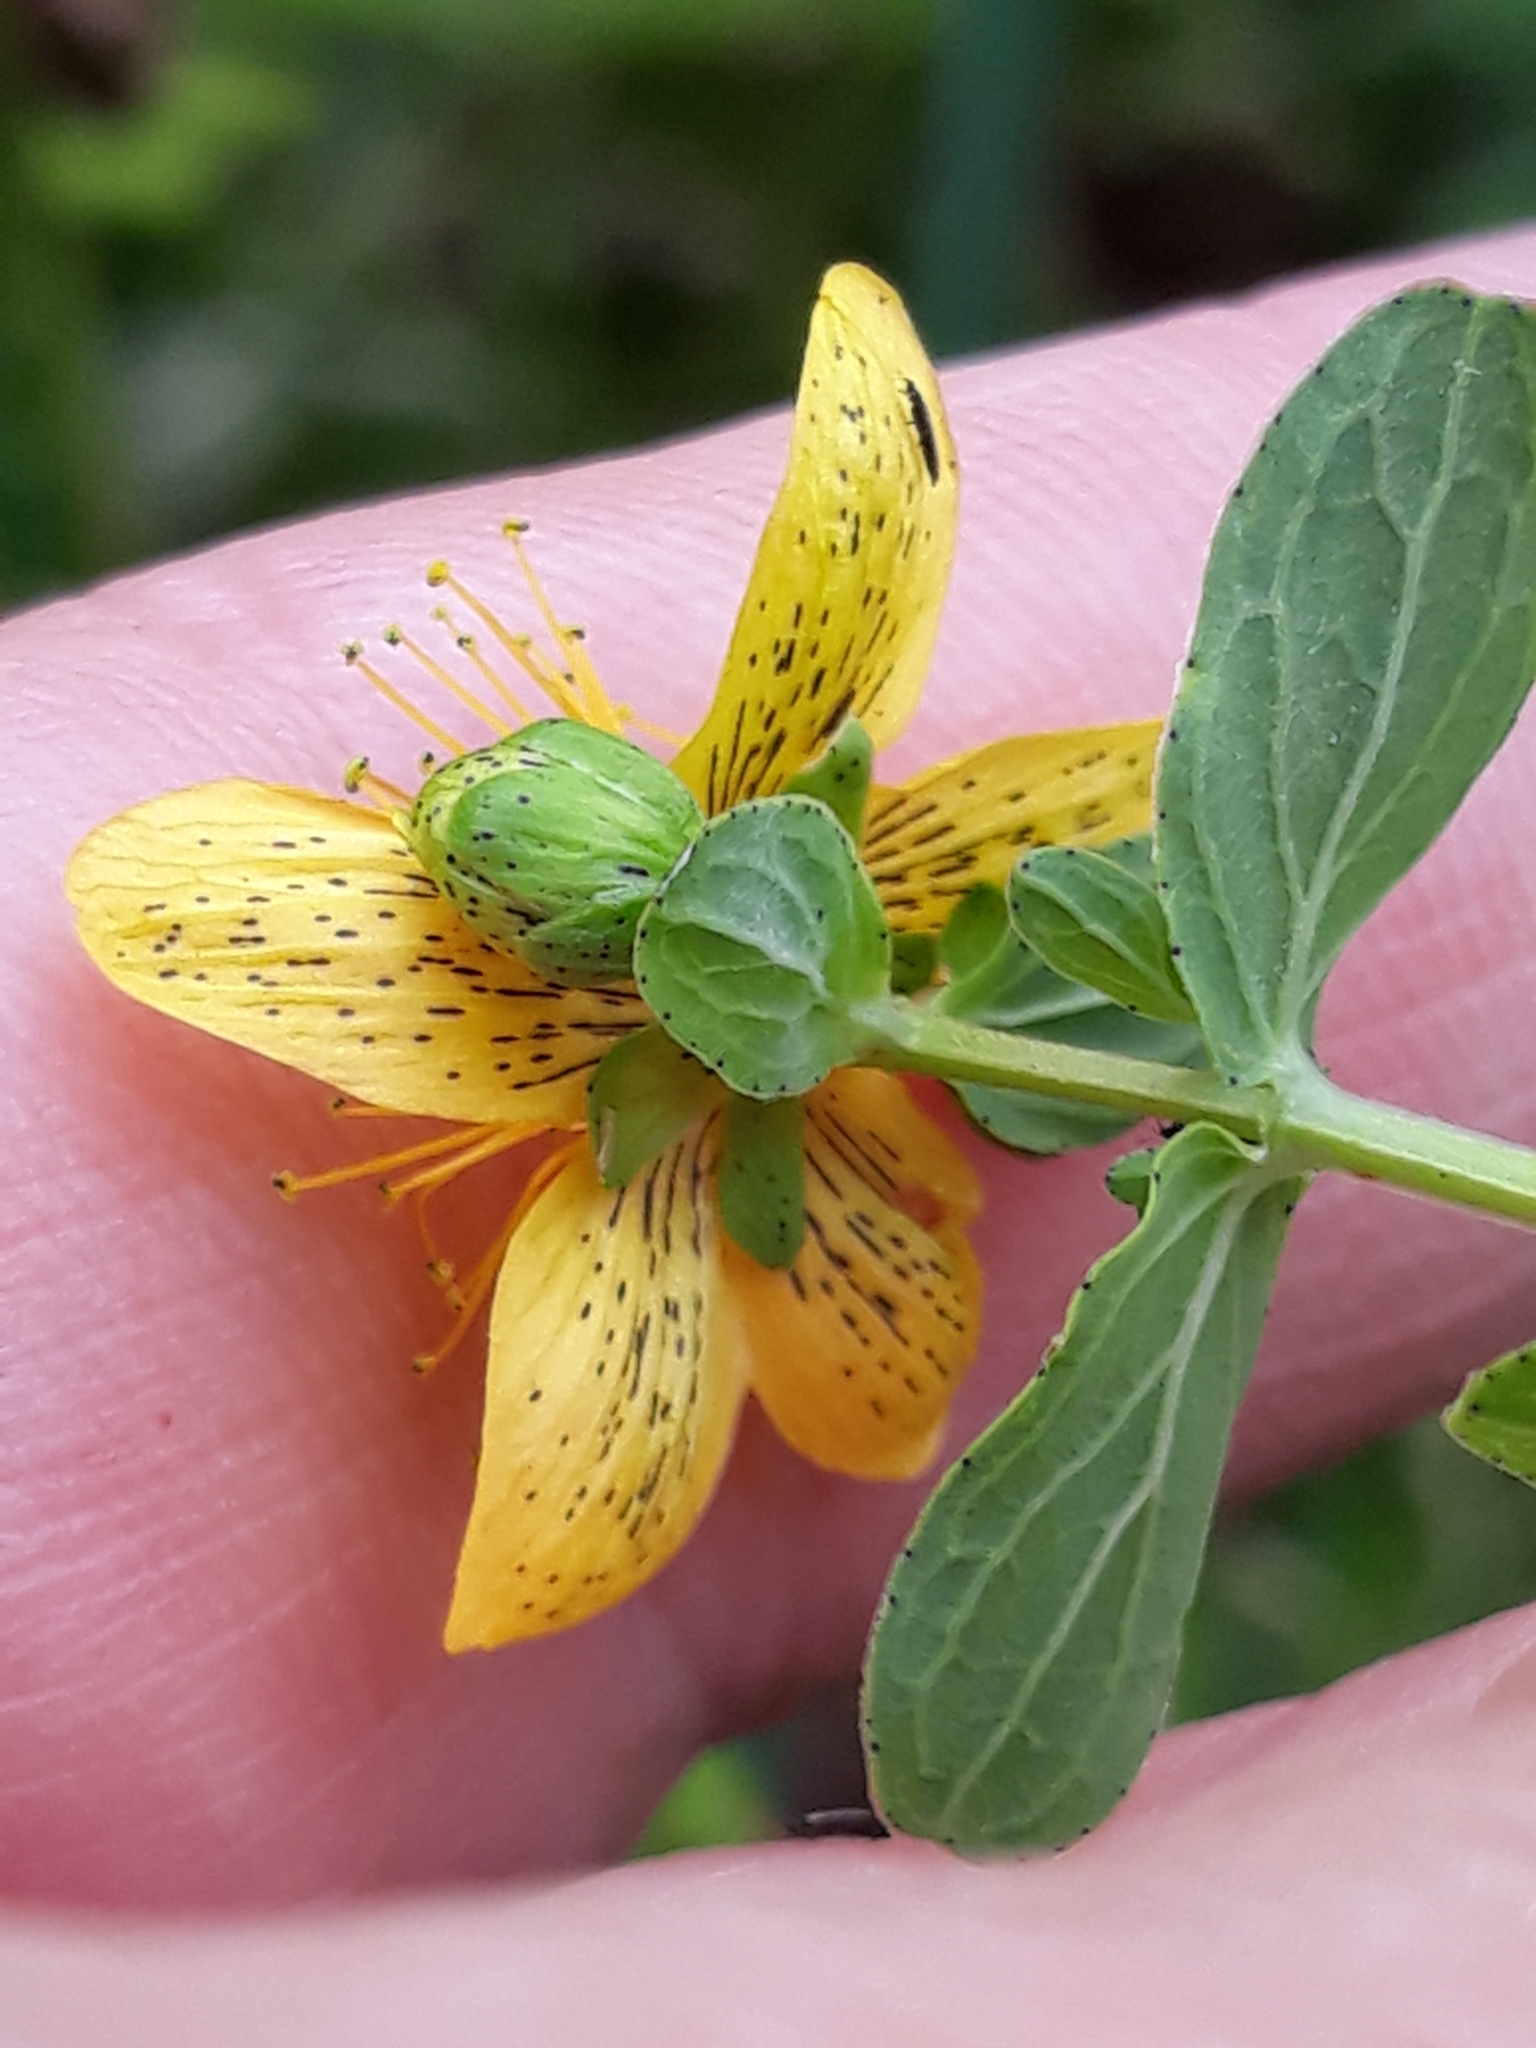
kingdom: Plantae
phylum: Tracheophyta
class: Magnoliopsida
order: Malpighiales
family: Hypericaceae
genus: Hypericum
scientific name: Hypericum maculatum
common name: Imperforate st. john's-wort
